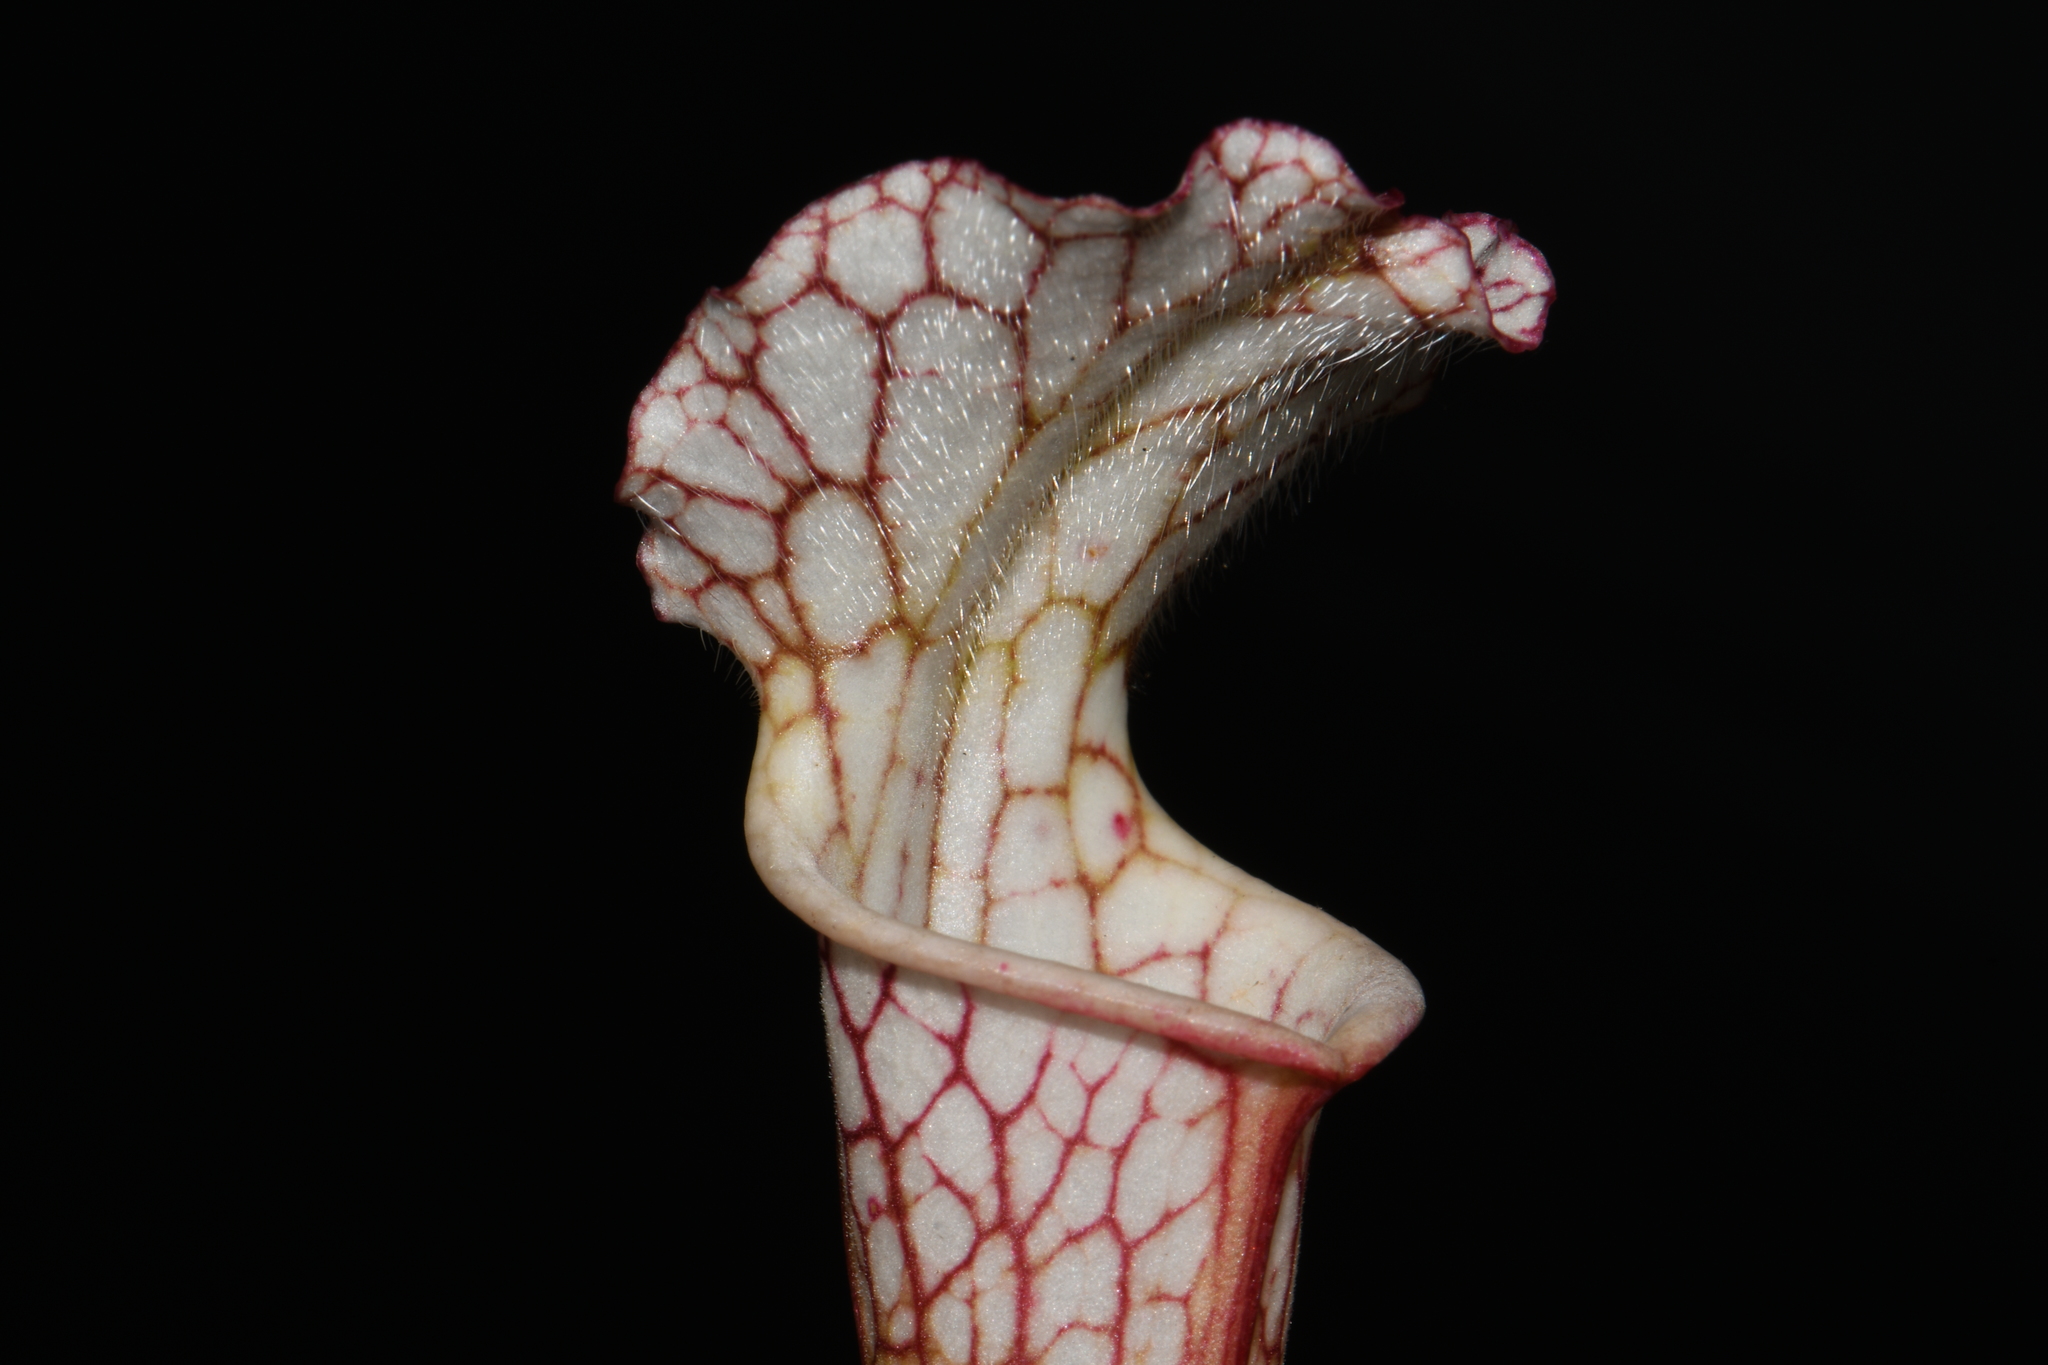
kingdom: Plantae
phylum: Tracheophyta
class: Magnoliopsida
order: Ericales
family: Sarraceniaceae
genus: Sarracenia
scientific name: Sarracenia leucophylla
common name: Purple trumpetleaf
